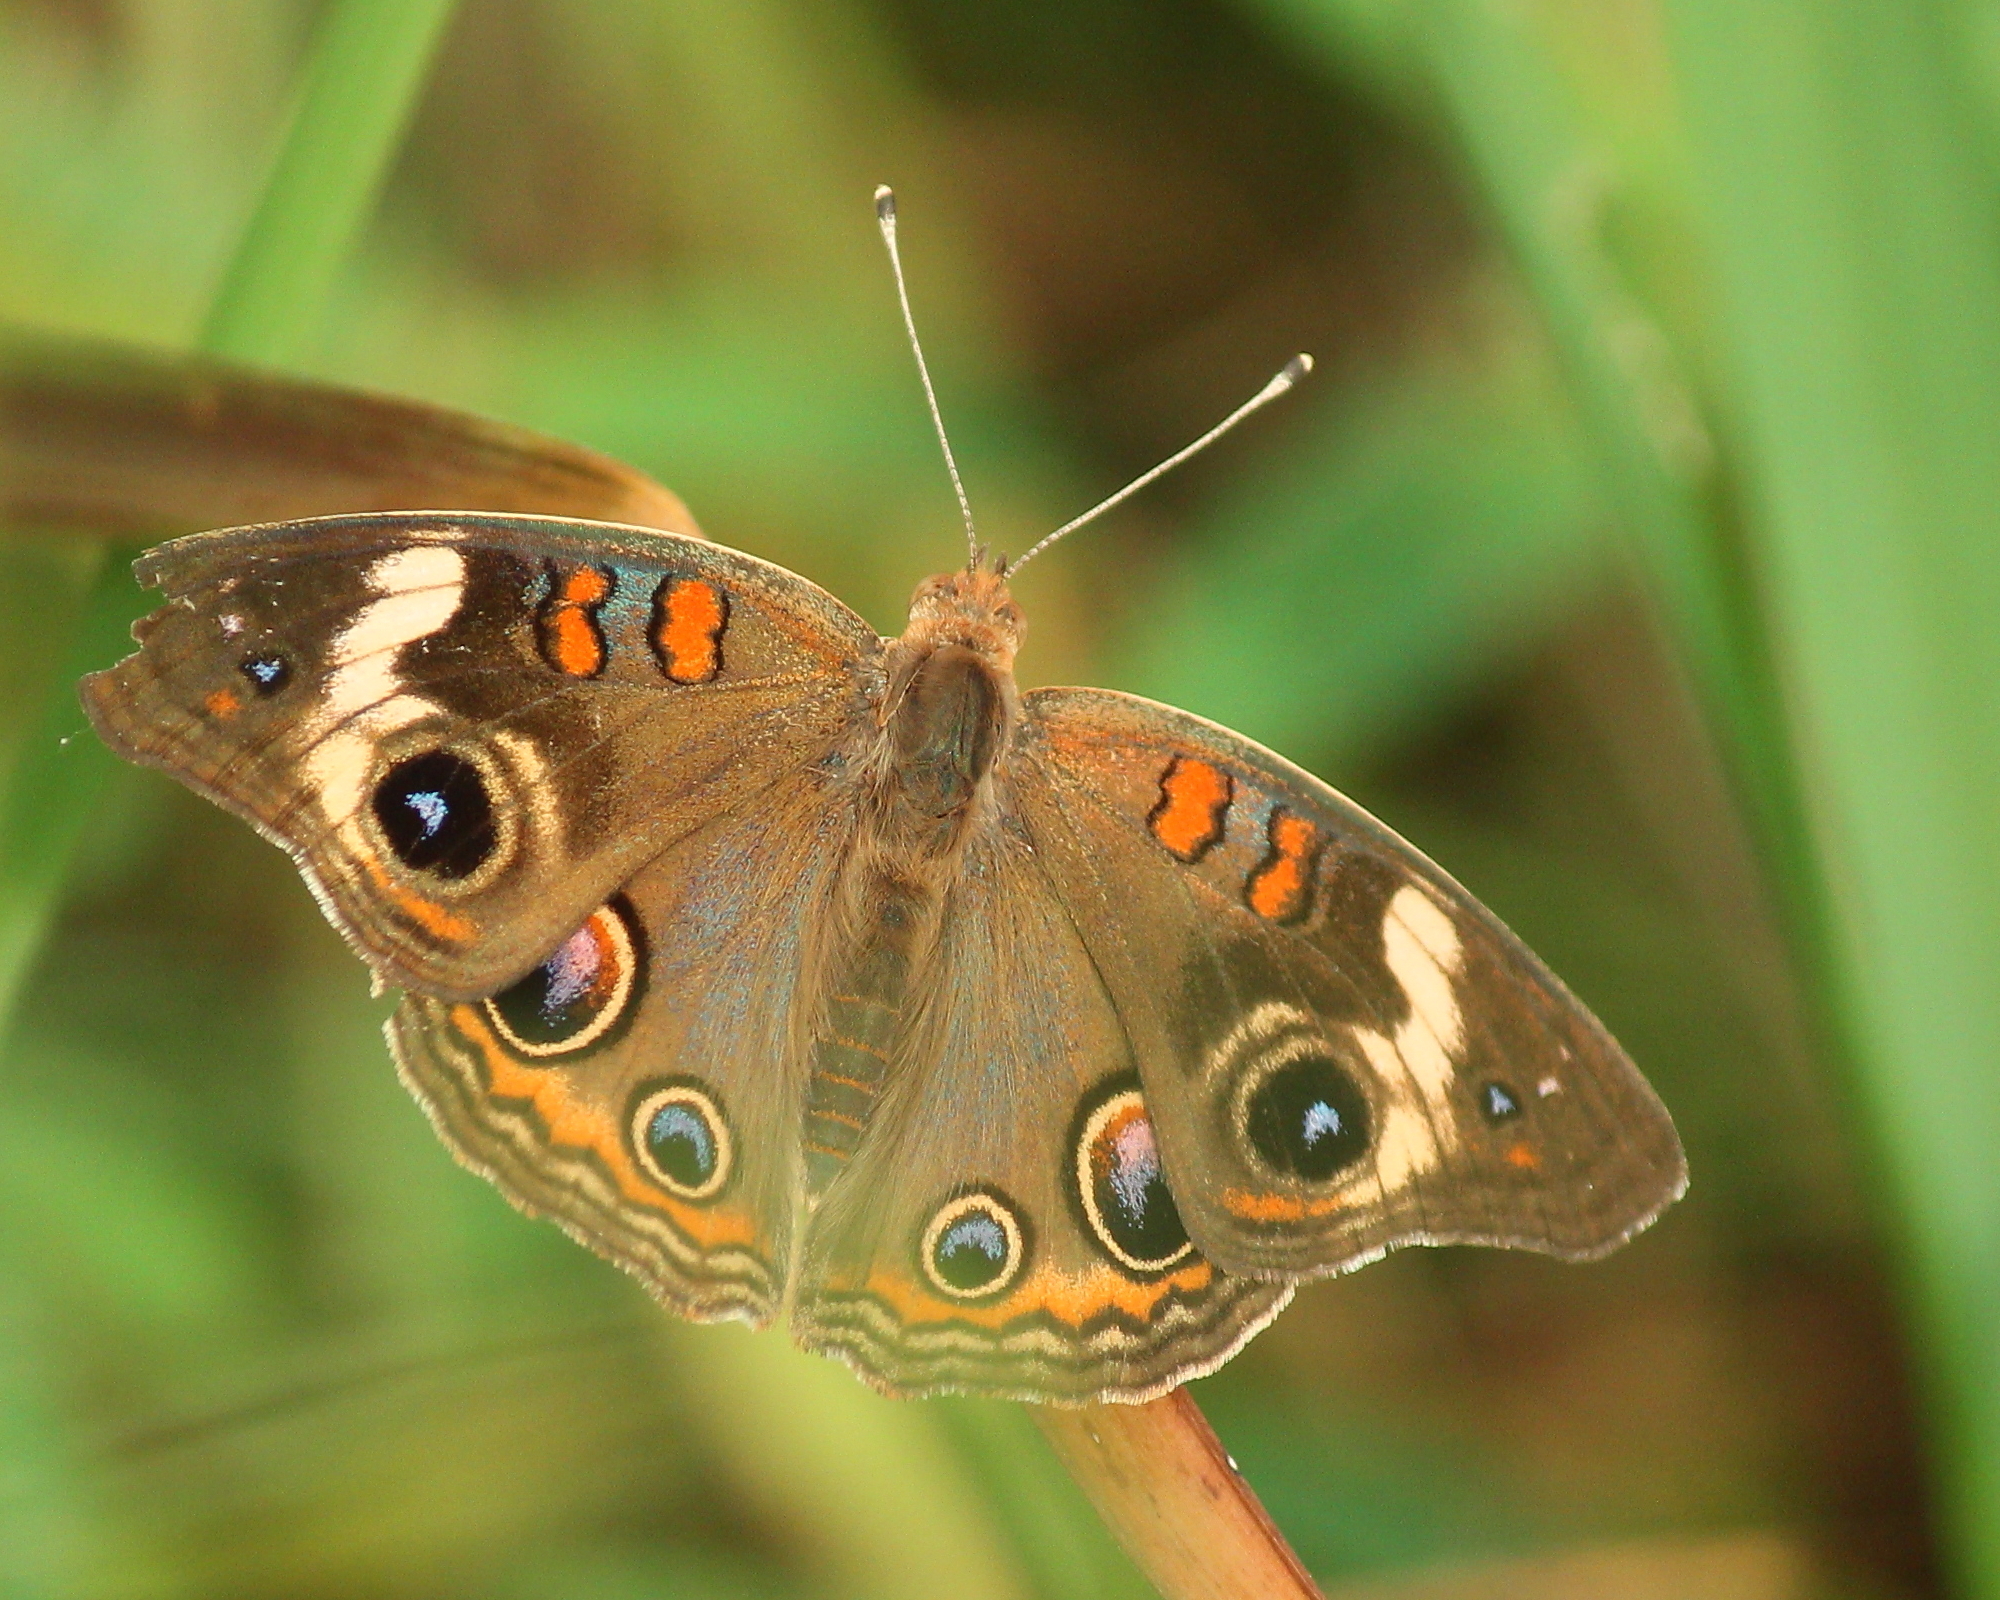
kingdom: Animalia
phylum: Arthropoda
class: Insecta
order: Lepidoptera
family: Nymphalidae
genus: Junonia
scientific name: Junonia coenia
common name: Common buckeye
